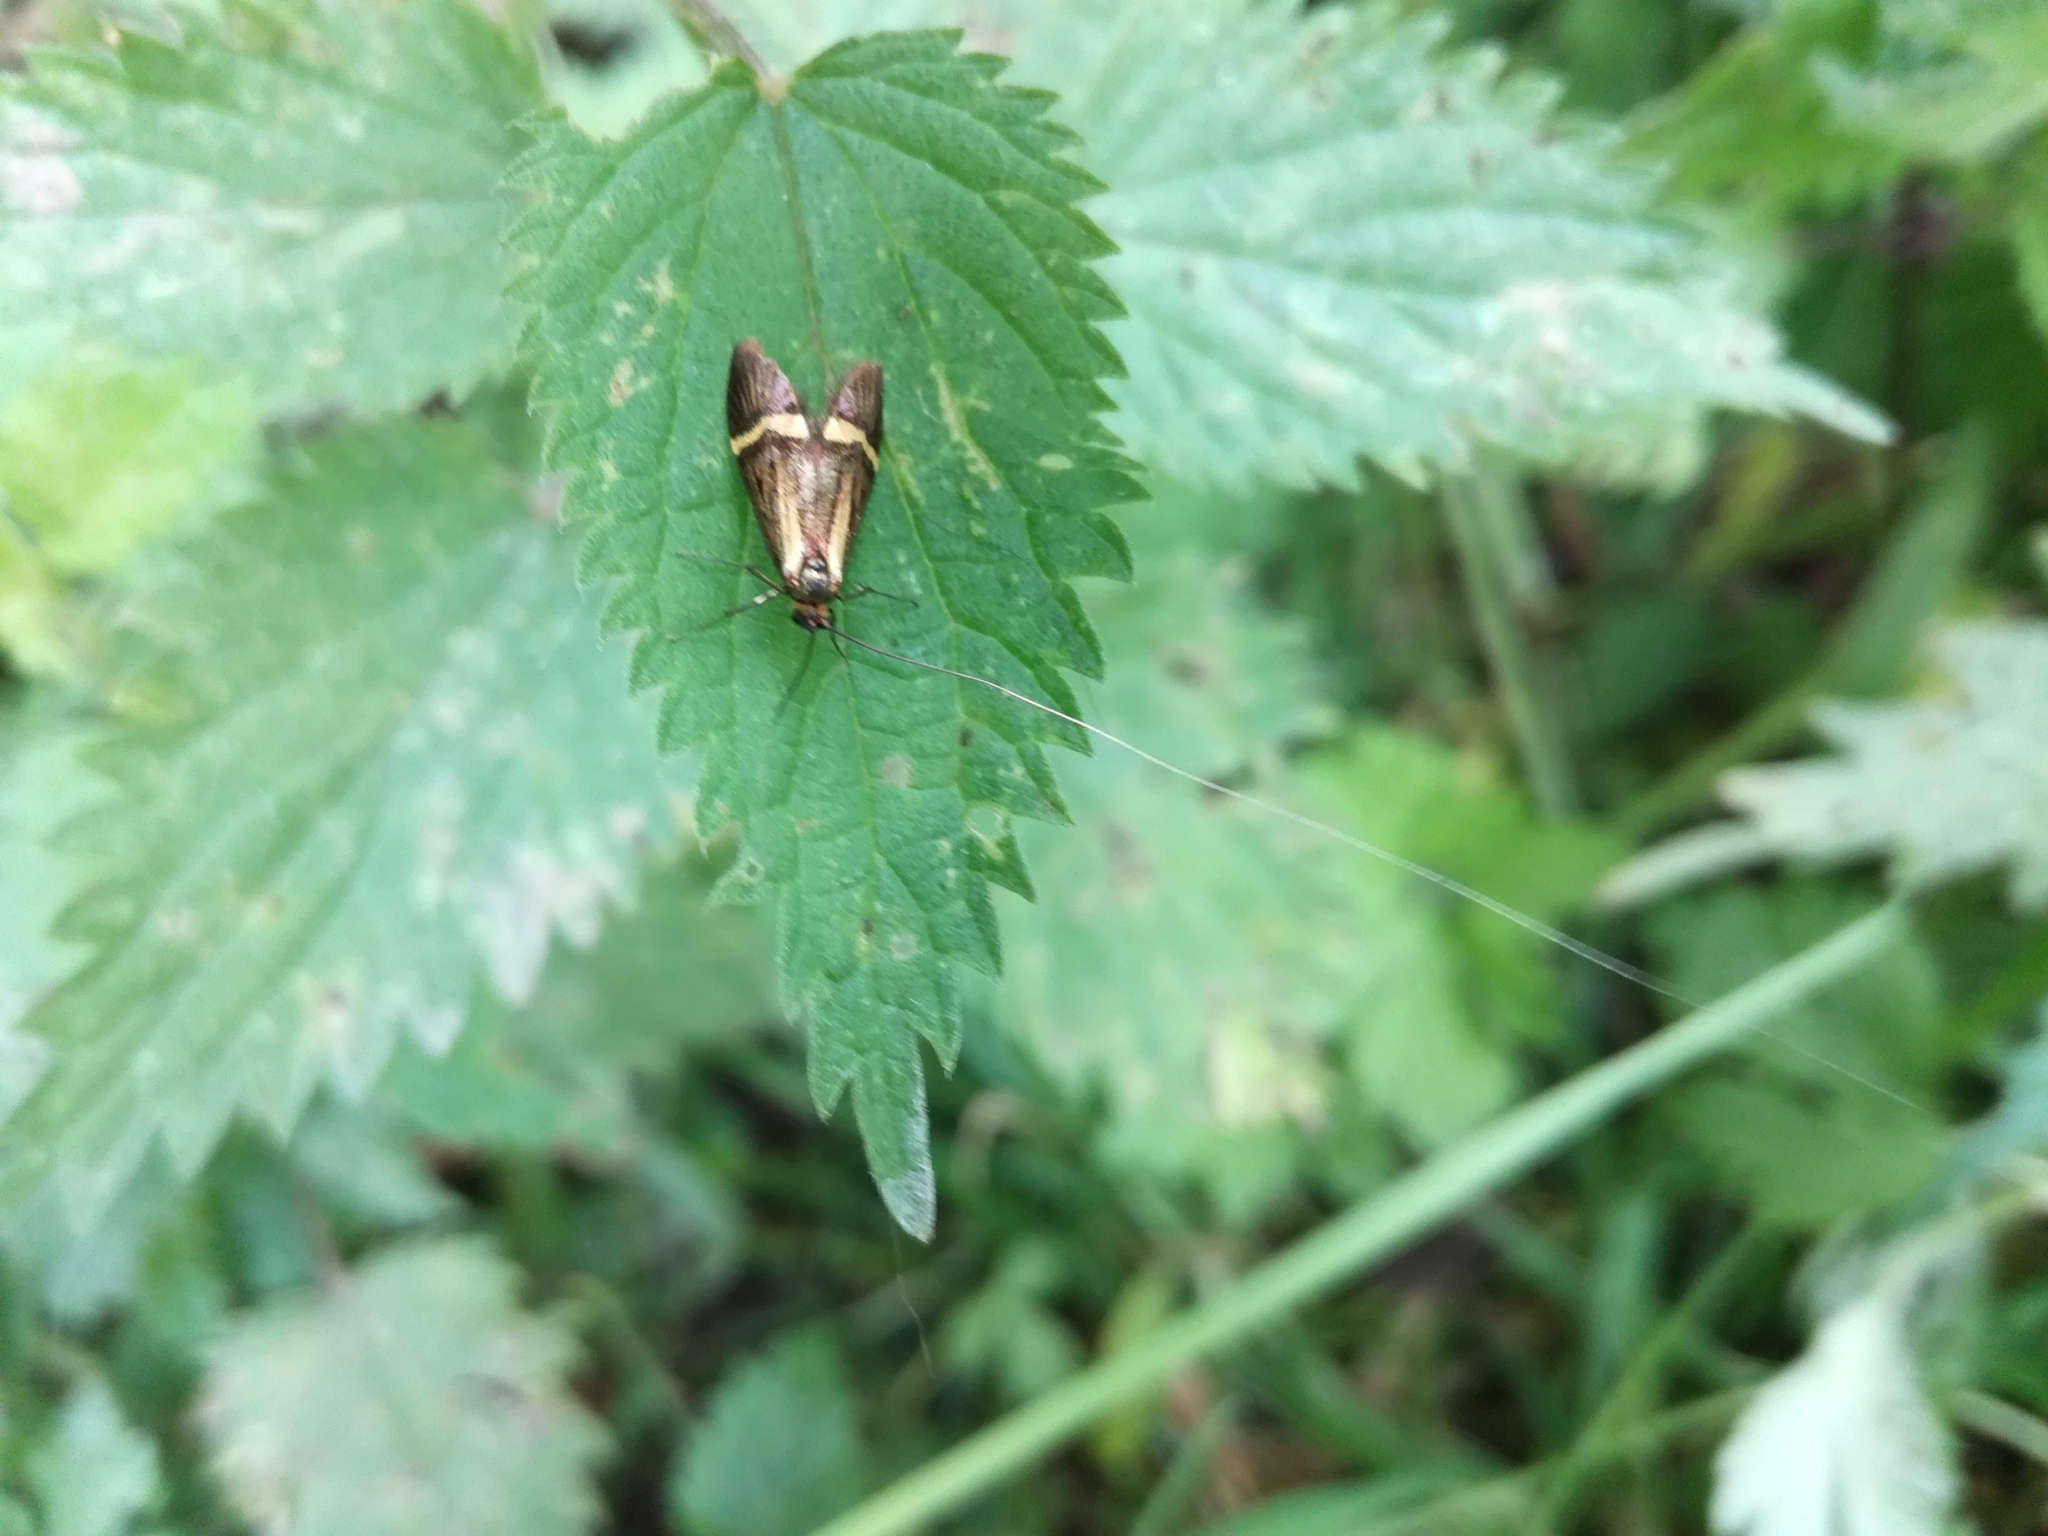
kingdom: Animalia
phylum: Arthropoda
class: Insecta
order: Lepidoptera
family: Adelidae
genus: Nemophora
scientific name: Nemophora degeerella
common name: Yellow-barred long-horn
